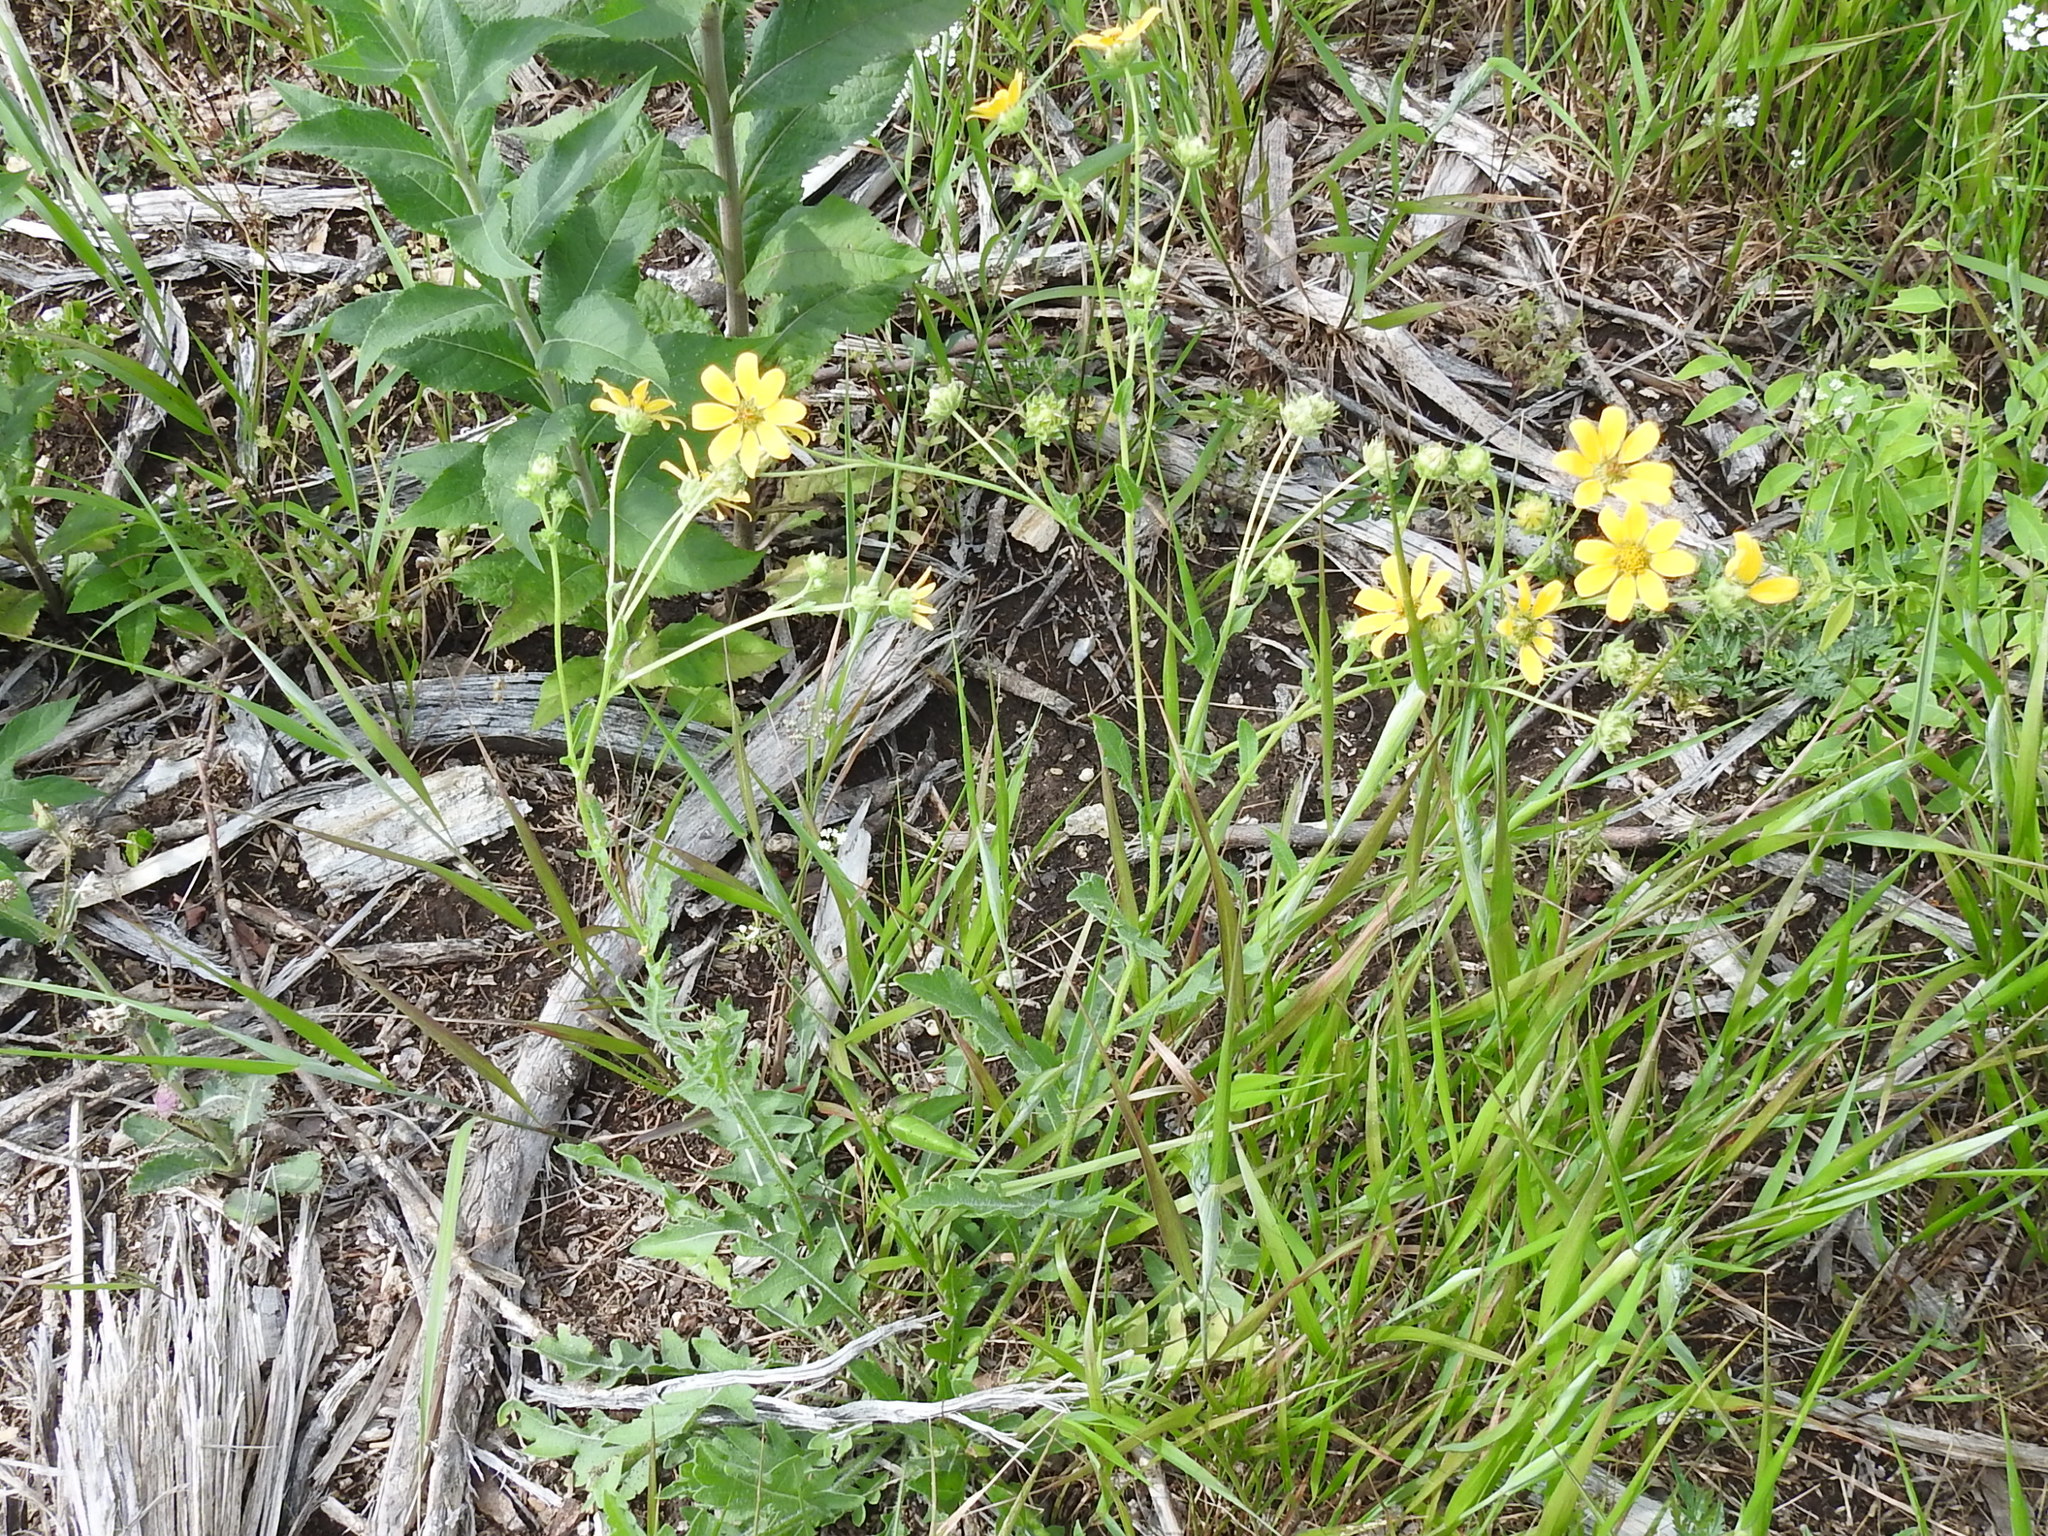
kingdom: Plantae
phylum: Tracheophyta
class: Magnoliopsida
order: Asterales
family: Asteraceae
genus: Engelmannia
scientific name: Engelmannia peristenia
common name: Engelmann's daisy
